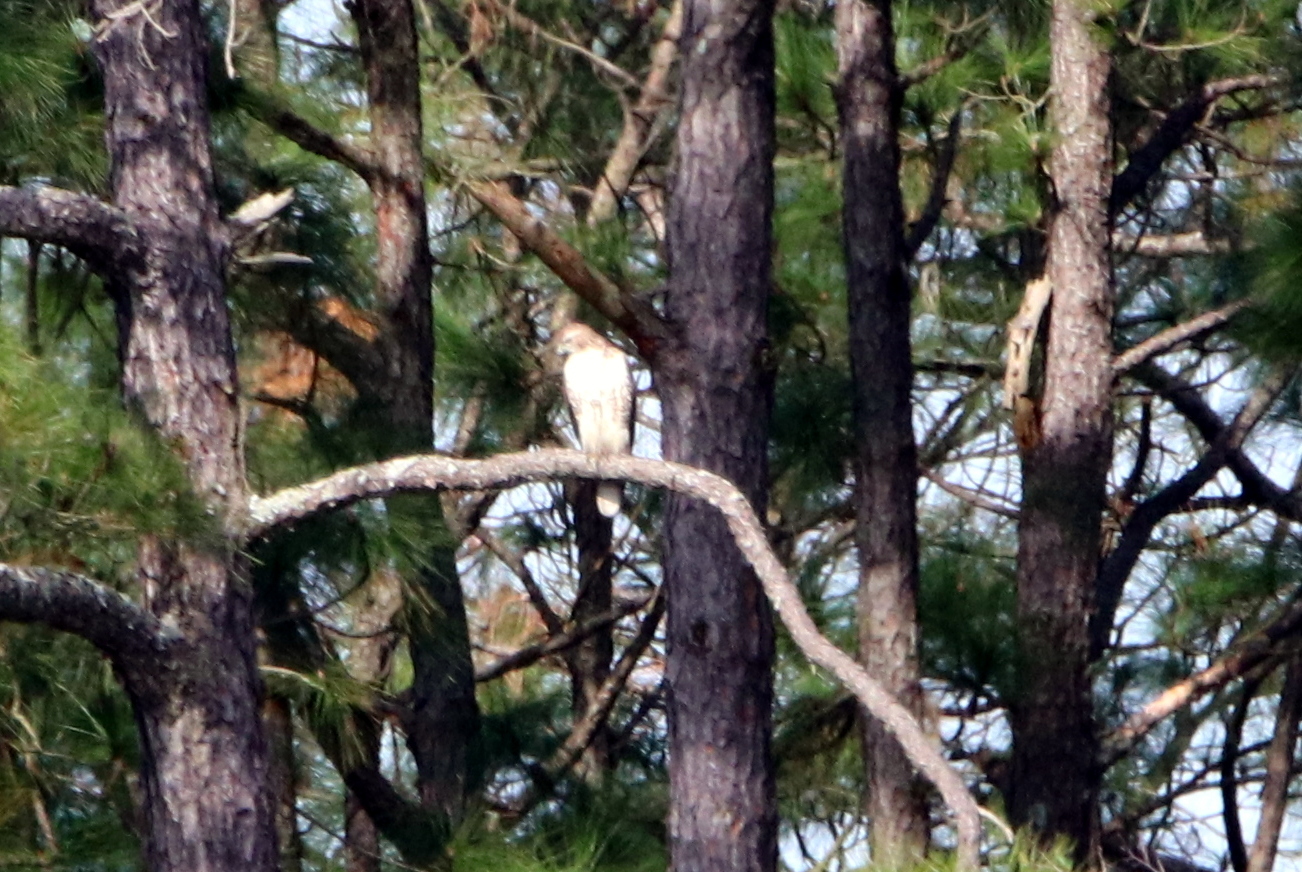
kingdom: Animalia
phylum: Chordata
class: Aves
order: Accipitriformes
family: Accipitridae
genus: Buteo
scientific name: Buteo jamaicensis
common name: Red-tailed hawk
